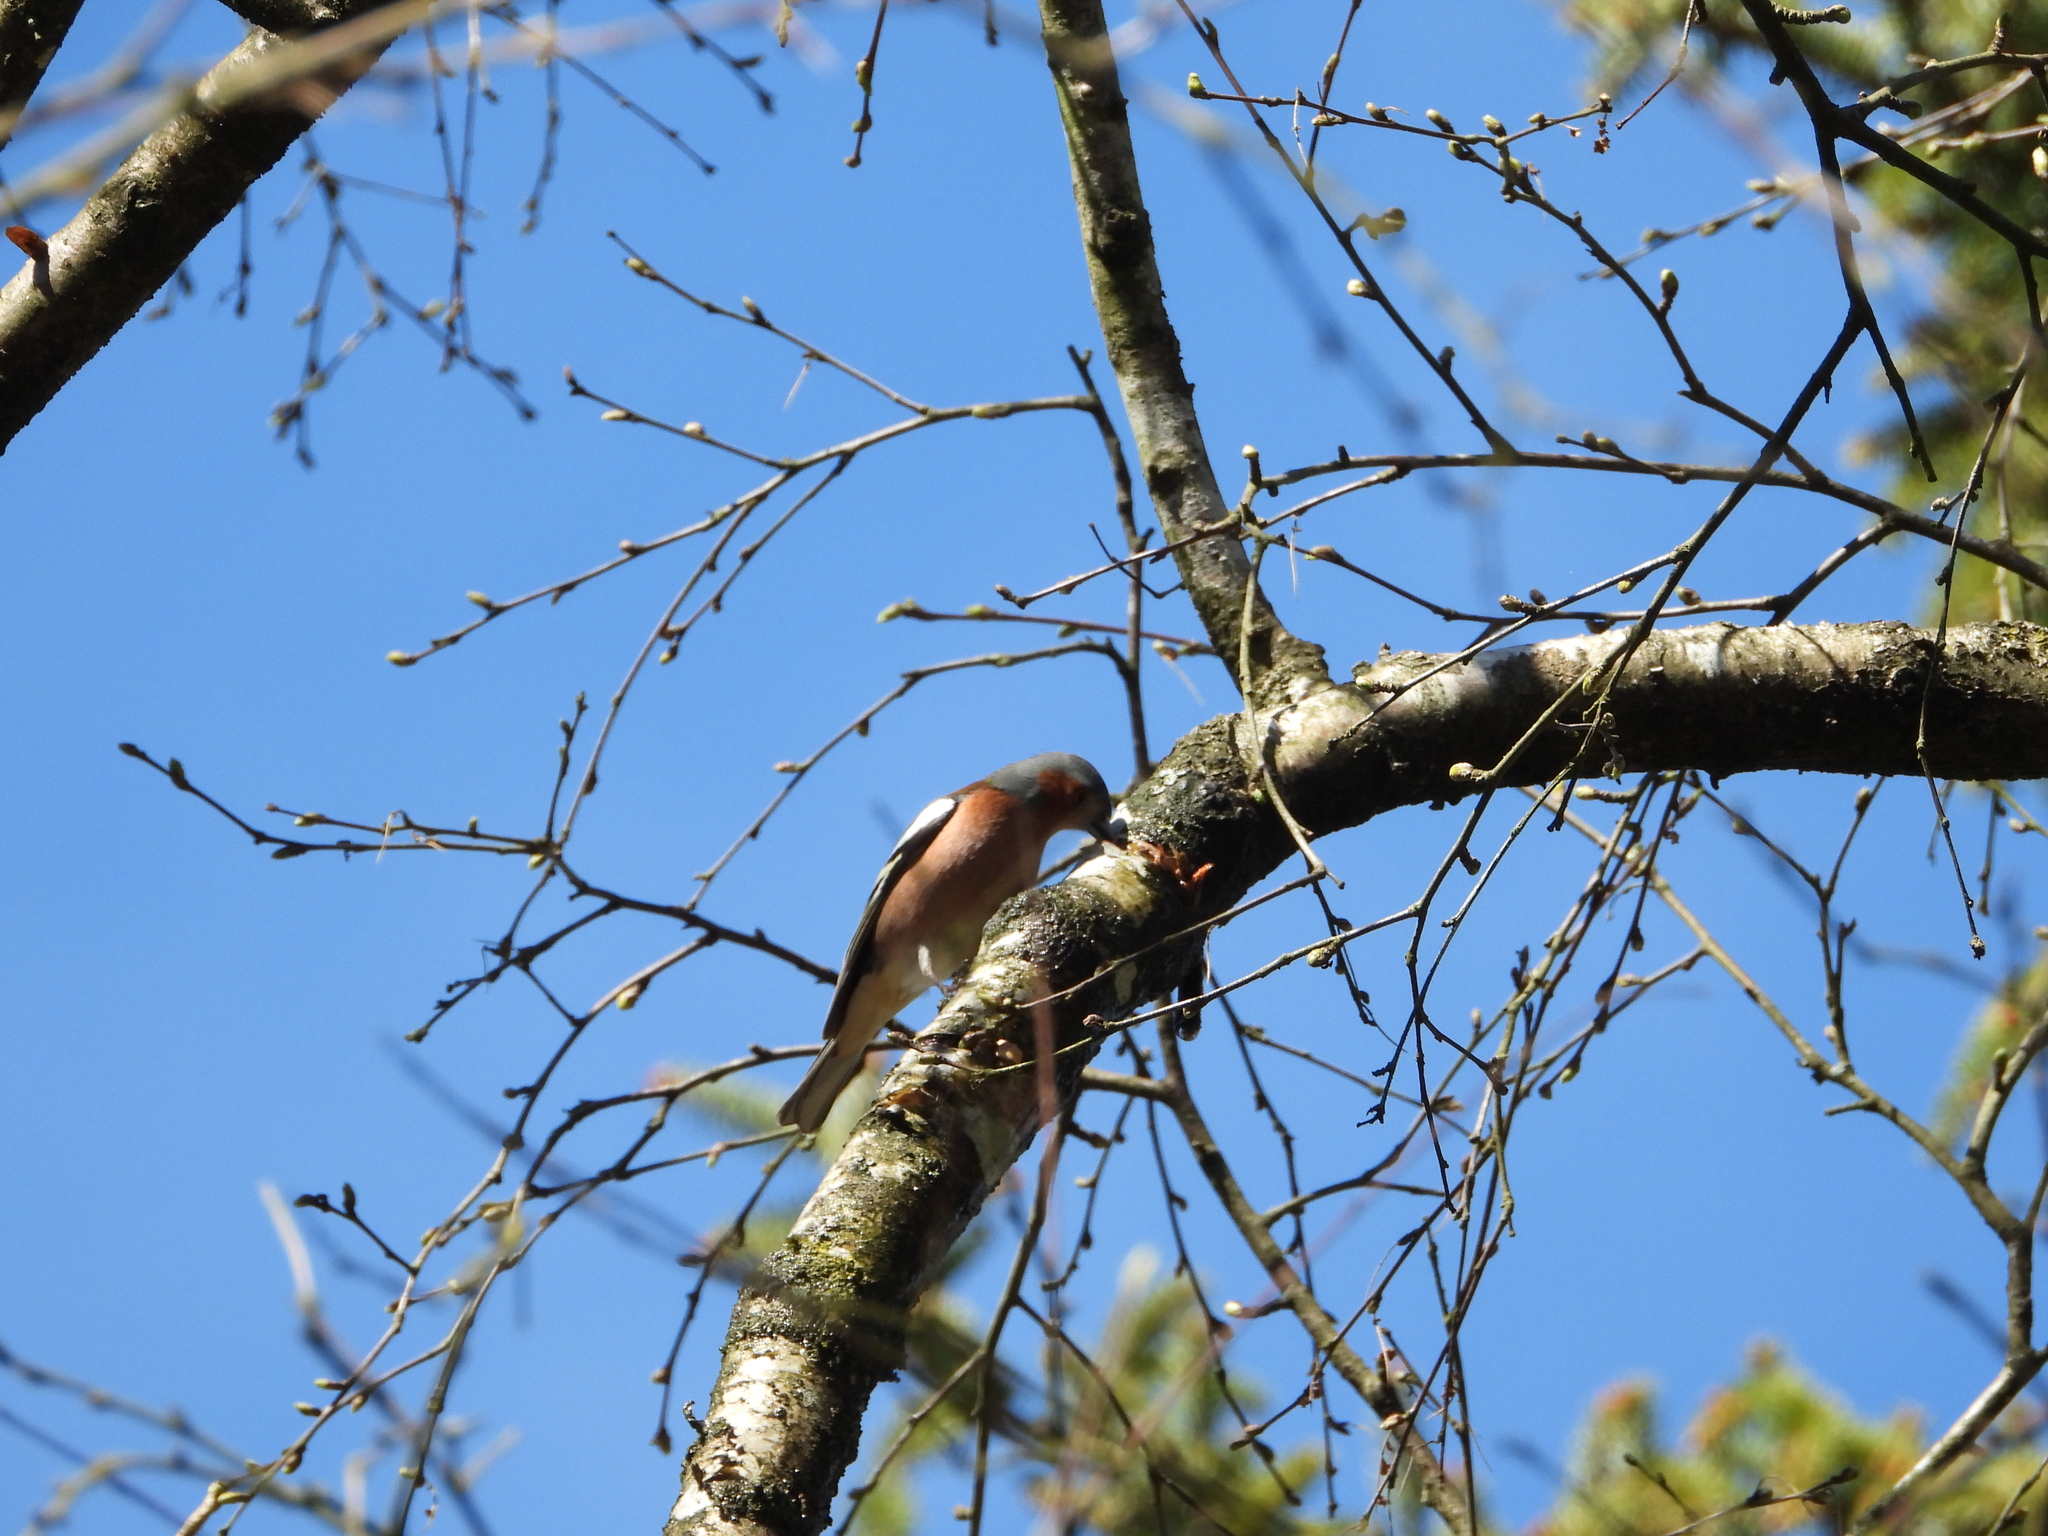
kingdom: Animalia
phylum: Chordata
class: Aves
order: Passeriformes
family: Fringillidae
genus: Fringilla
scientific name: Fringilla coelebs
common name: Common chaffinch
